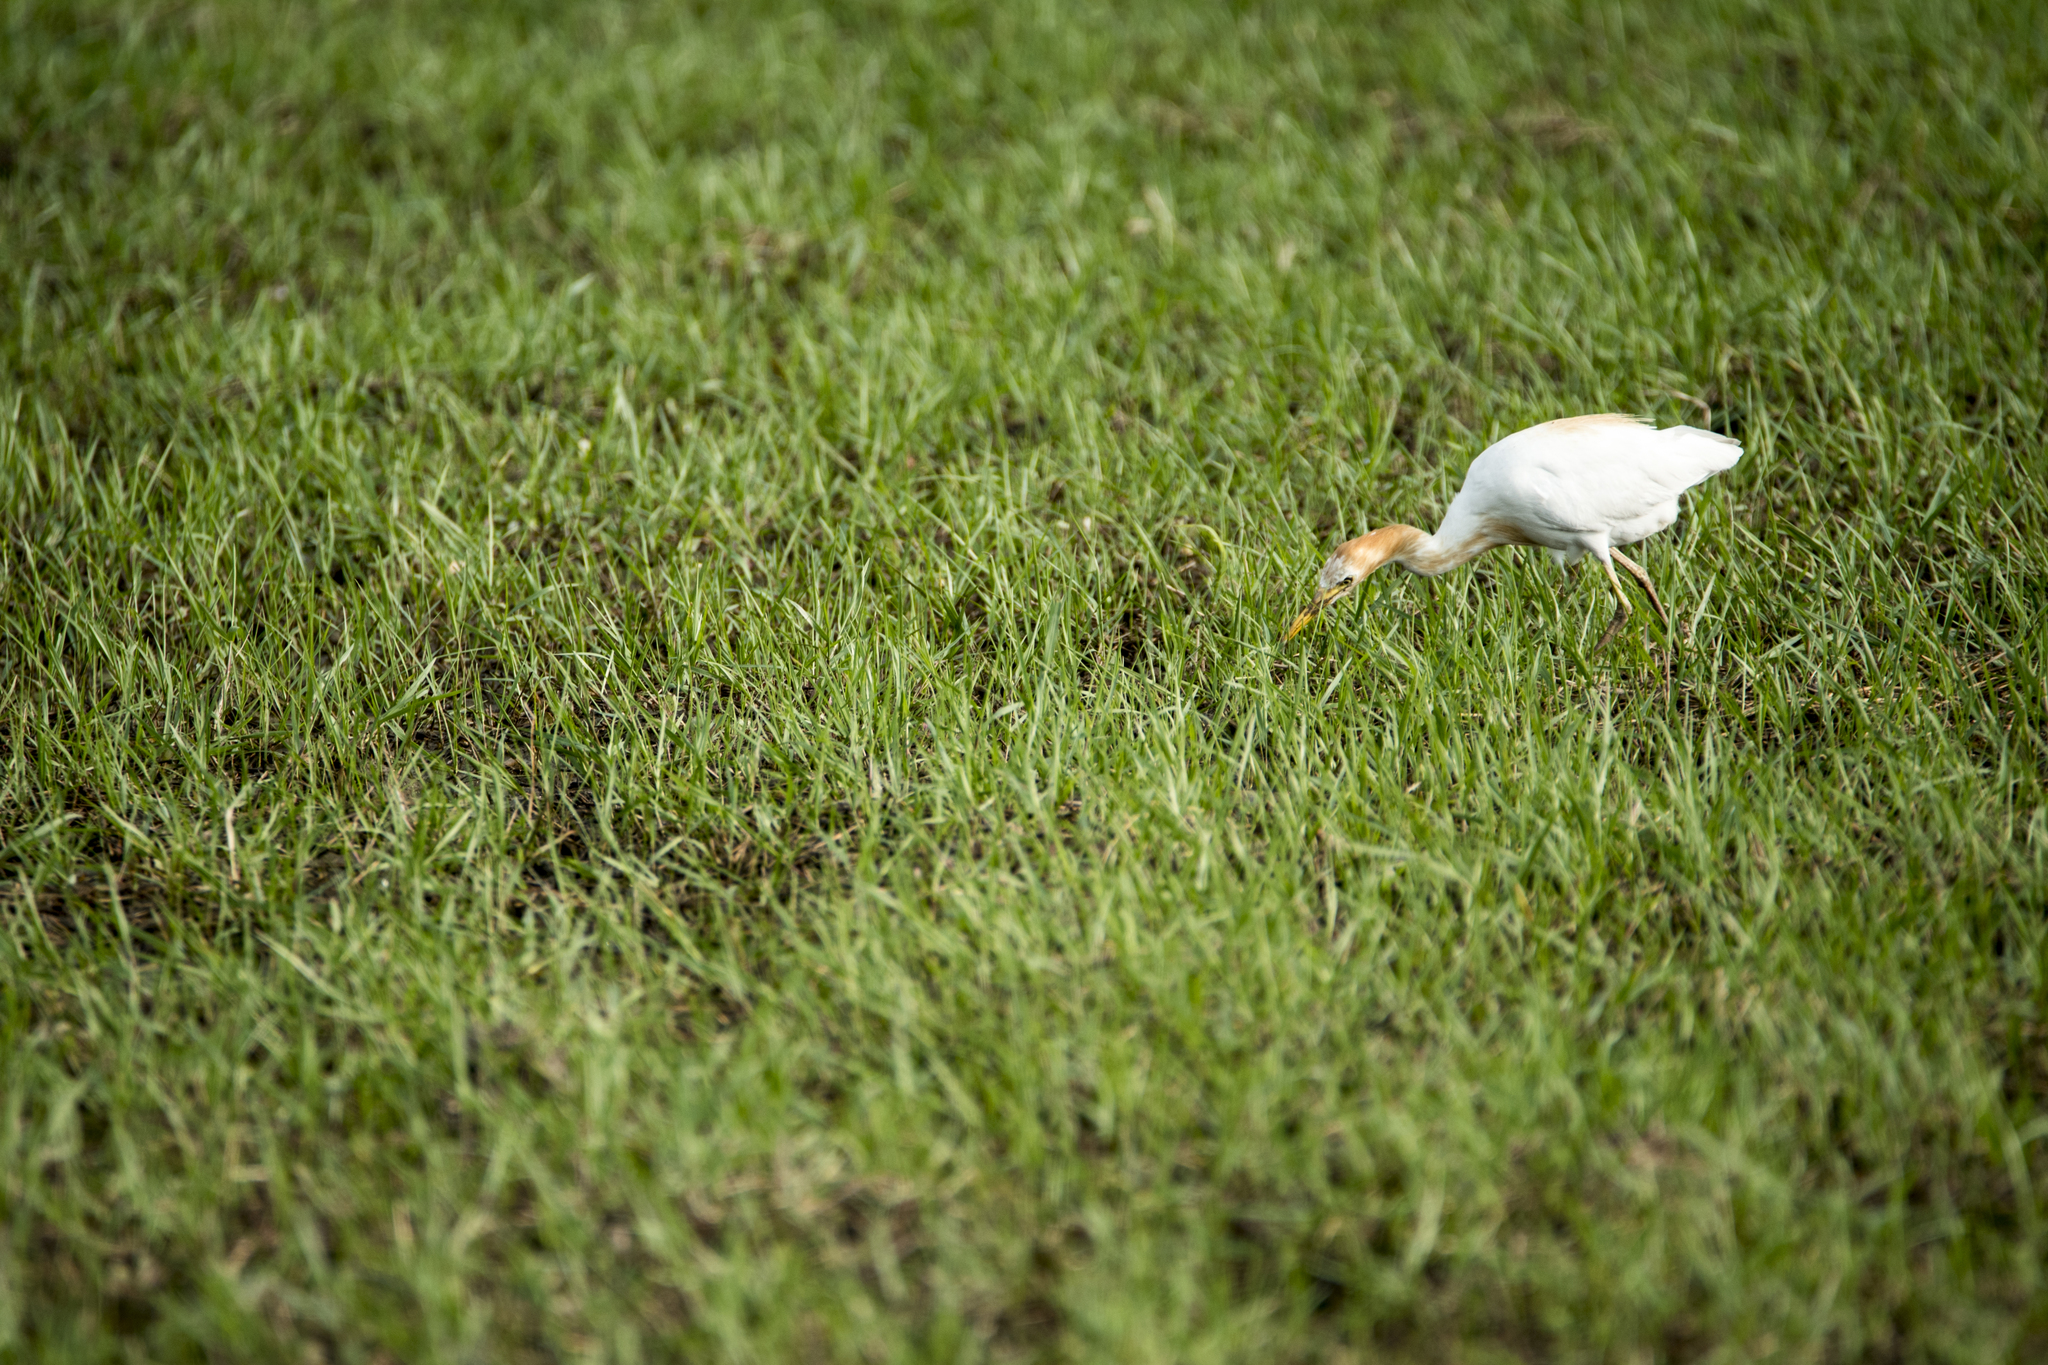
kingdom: Animalia
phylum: Chordata
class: Aves
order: Pelecaniformes
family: Ardeidae
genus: Bubulcus
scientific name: Bubulcus coromandus
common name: Eastern cattle egret
